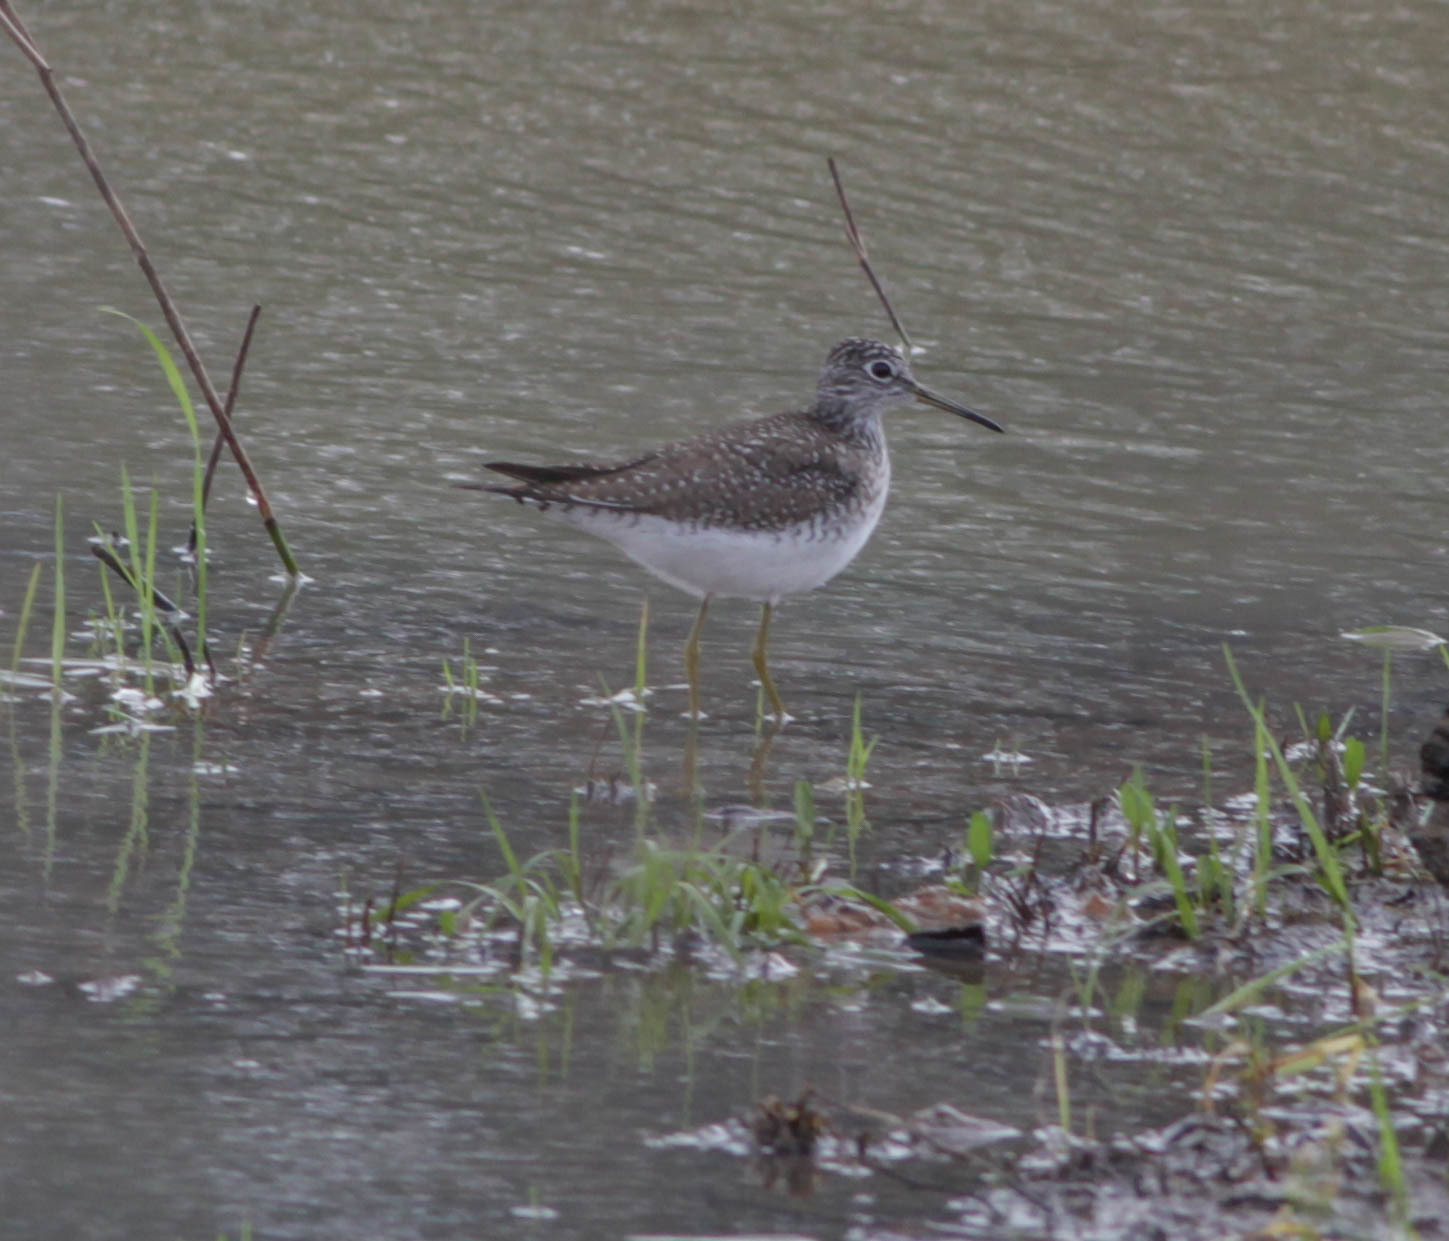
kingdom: Animalia
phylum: Chordata
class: Aves
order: Charadriiformes
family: Scolopacidae
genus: Tringa
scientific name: Tringa solitaria
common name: Solitary sandpiper
